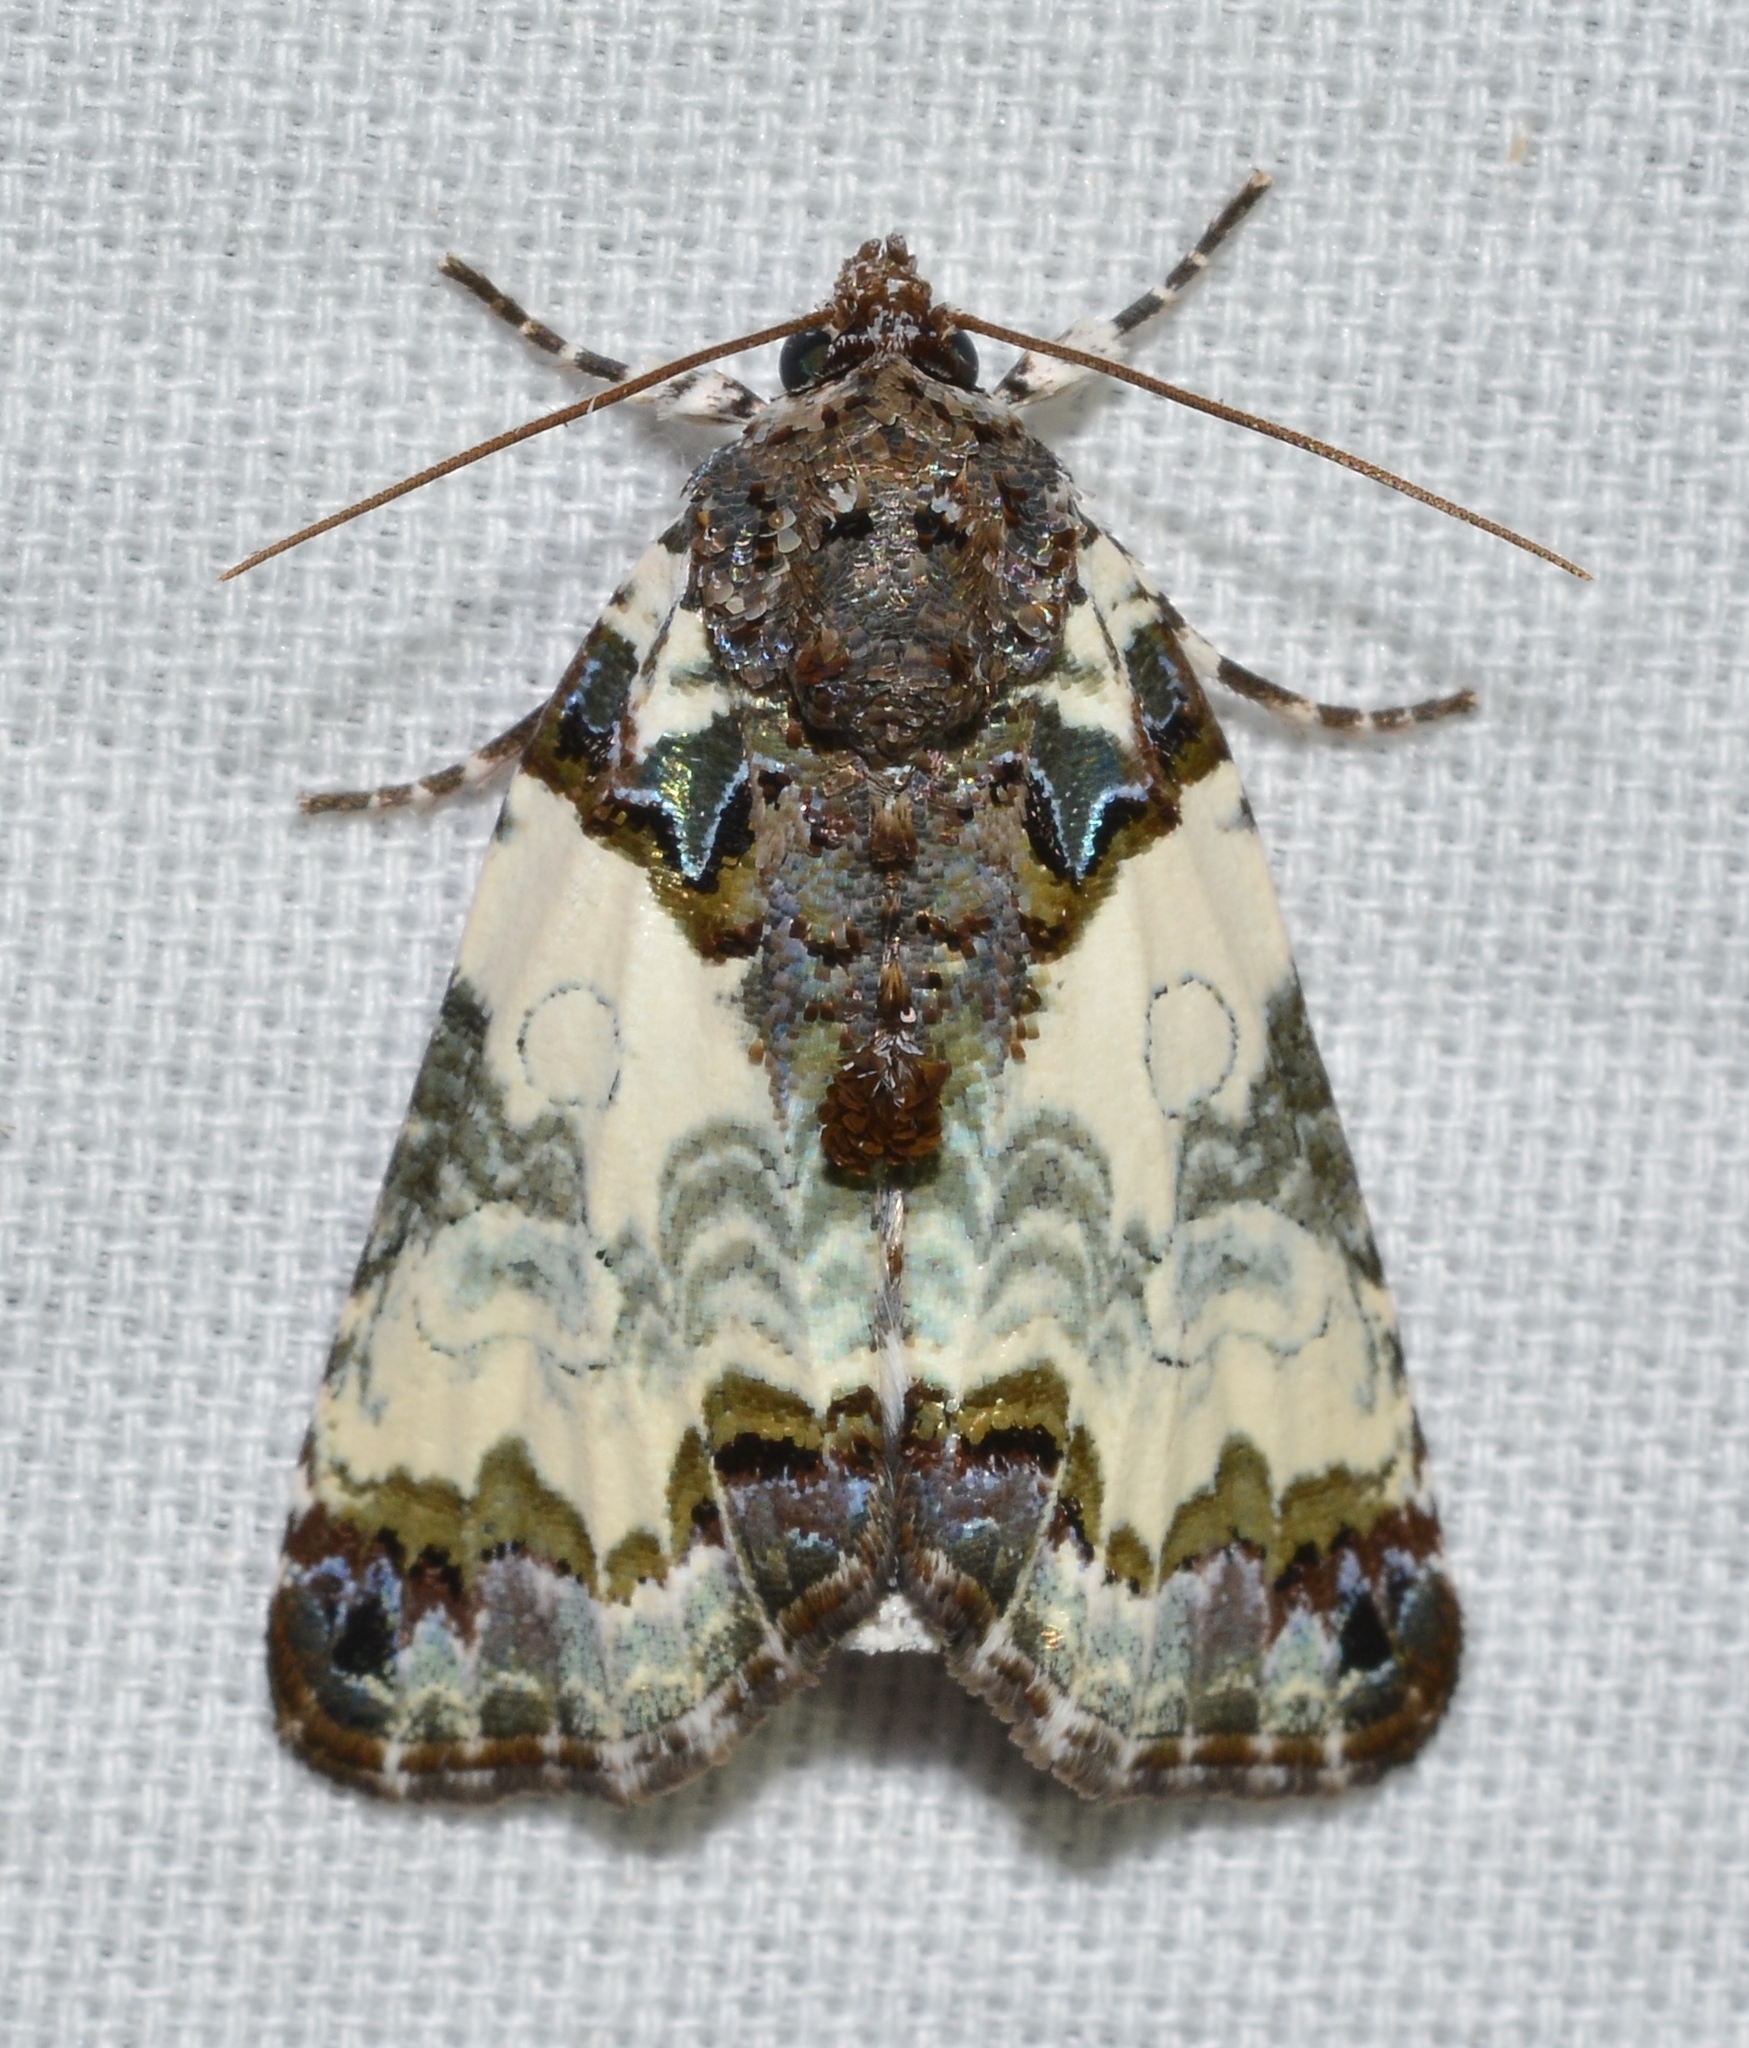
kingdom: Animalia
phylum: Arthropoda
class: Insecta
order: Lepidoptera
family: Noctuidae
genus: Cerma
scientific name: Cerma cerintha
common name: Tufted bird-dropping moth
